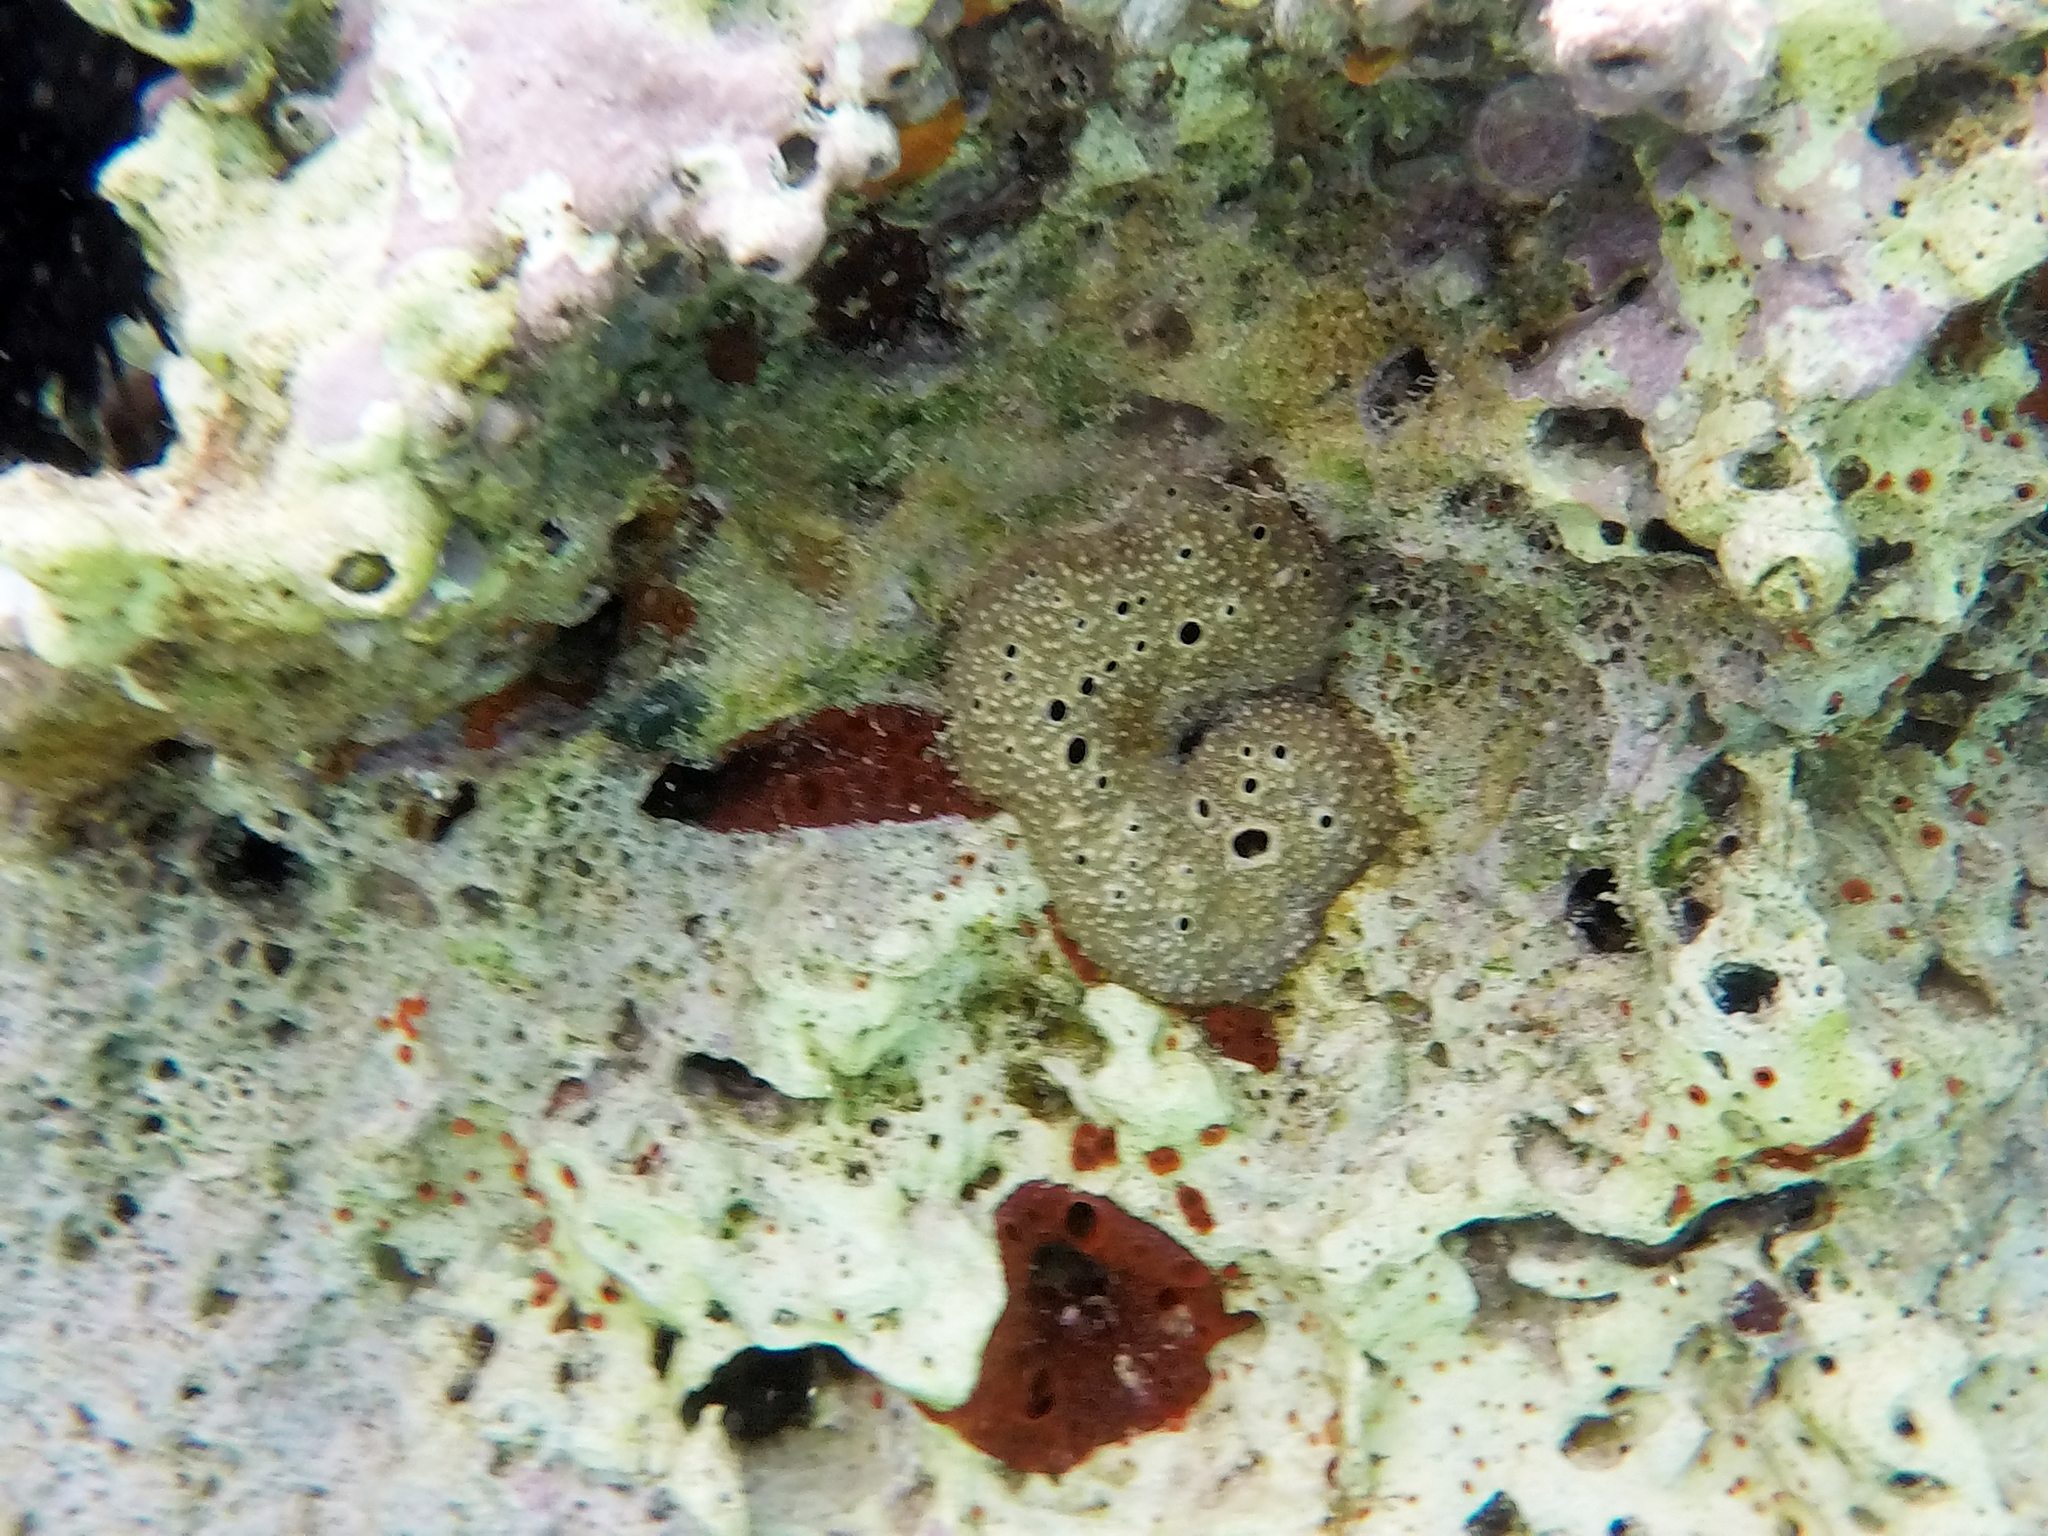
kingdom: Animalia
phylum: Porifera
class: Demospongiae
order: Dictyoceratida
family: Irciniidae
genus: Ircinia
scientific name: Ircinia variabilis
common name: Variable loggerhead sponge
